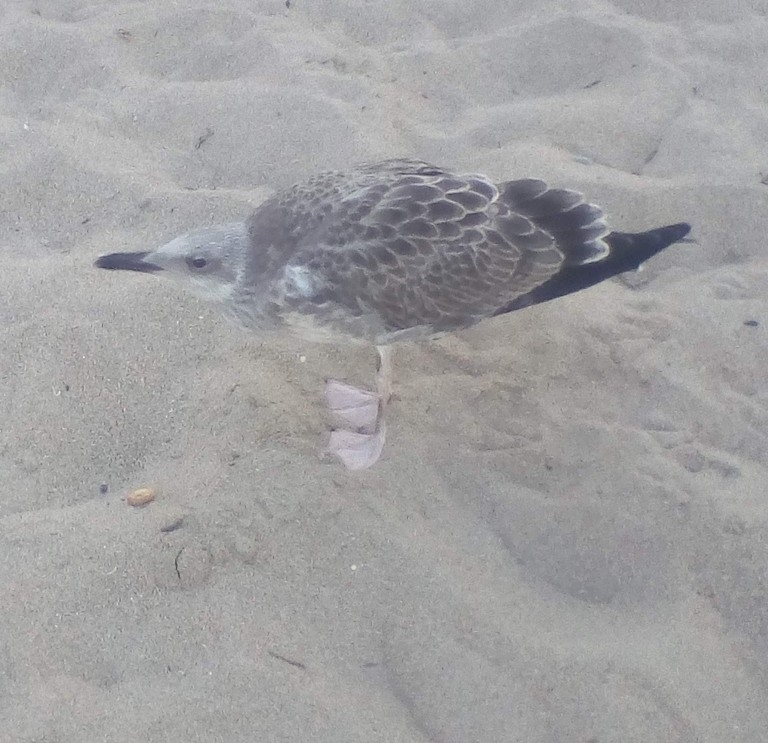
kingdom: Animalia
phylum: Chordata
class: Aves
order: Charadriiformes
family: Laridae
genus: Larus
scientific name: Larus cachinnans
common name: Caspian gull
